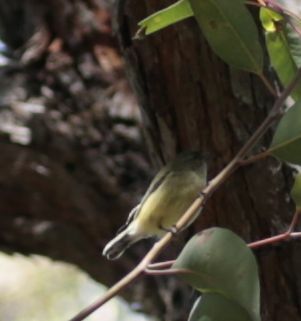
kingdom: Animalia
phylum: Chordata
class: Aves
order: Passeriformes
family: Acanthizidae
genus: Smicrornis
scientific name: Smicrornis brevirostris
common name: Weebill
